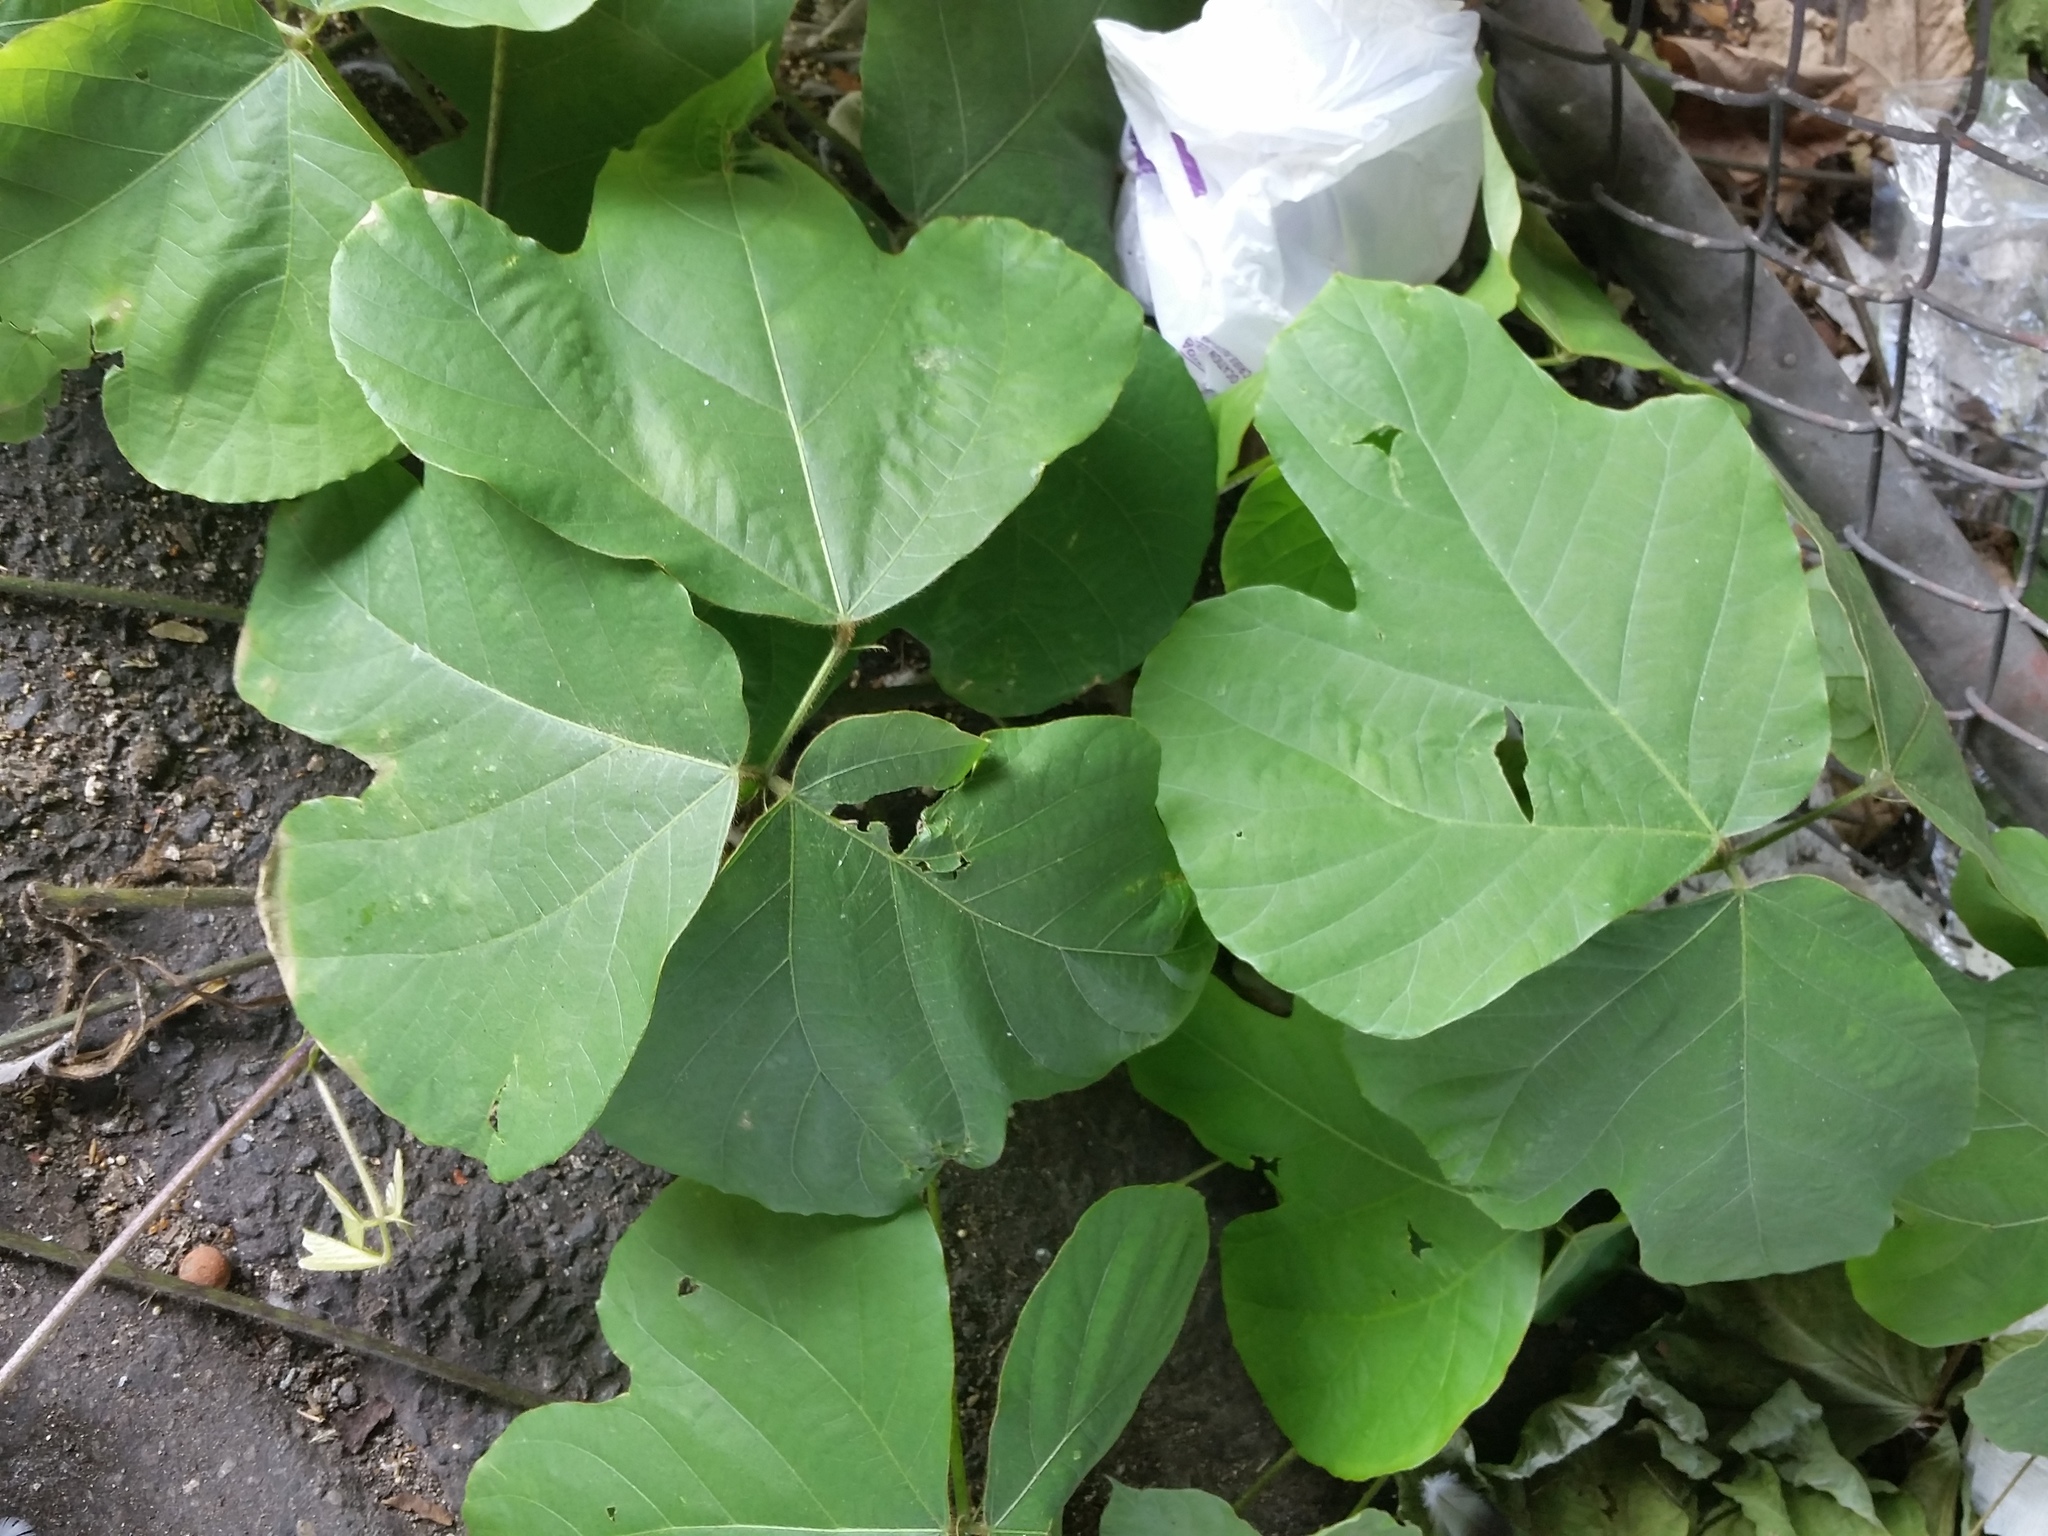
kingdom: Plantae
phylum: Tracheophyta
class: Magnoliopsida
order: Fabales
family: Fabaceae
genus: Pueraria
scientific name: Pueraria montana
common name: Kudzu
